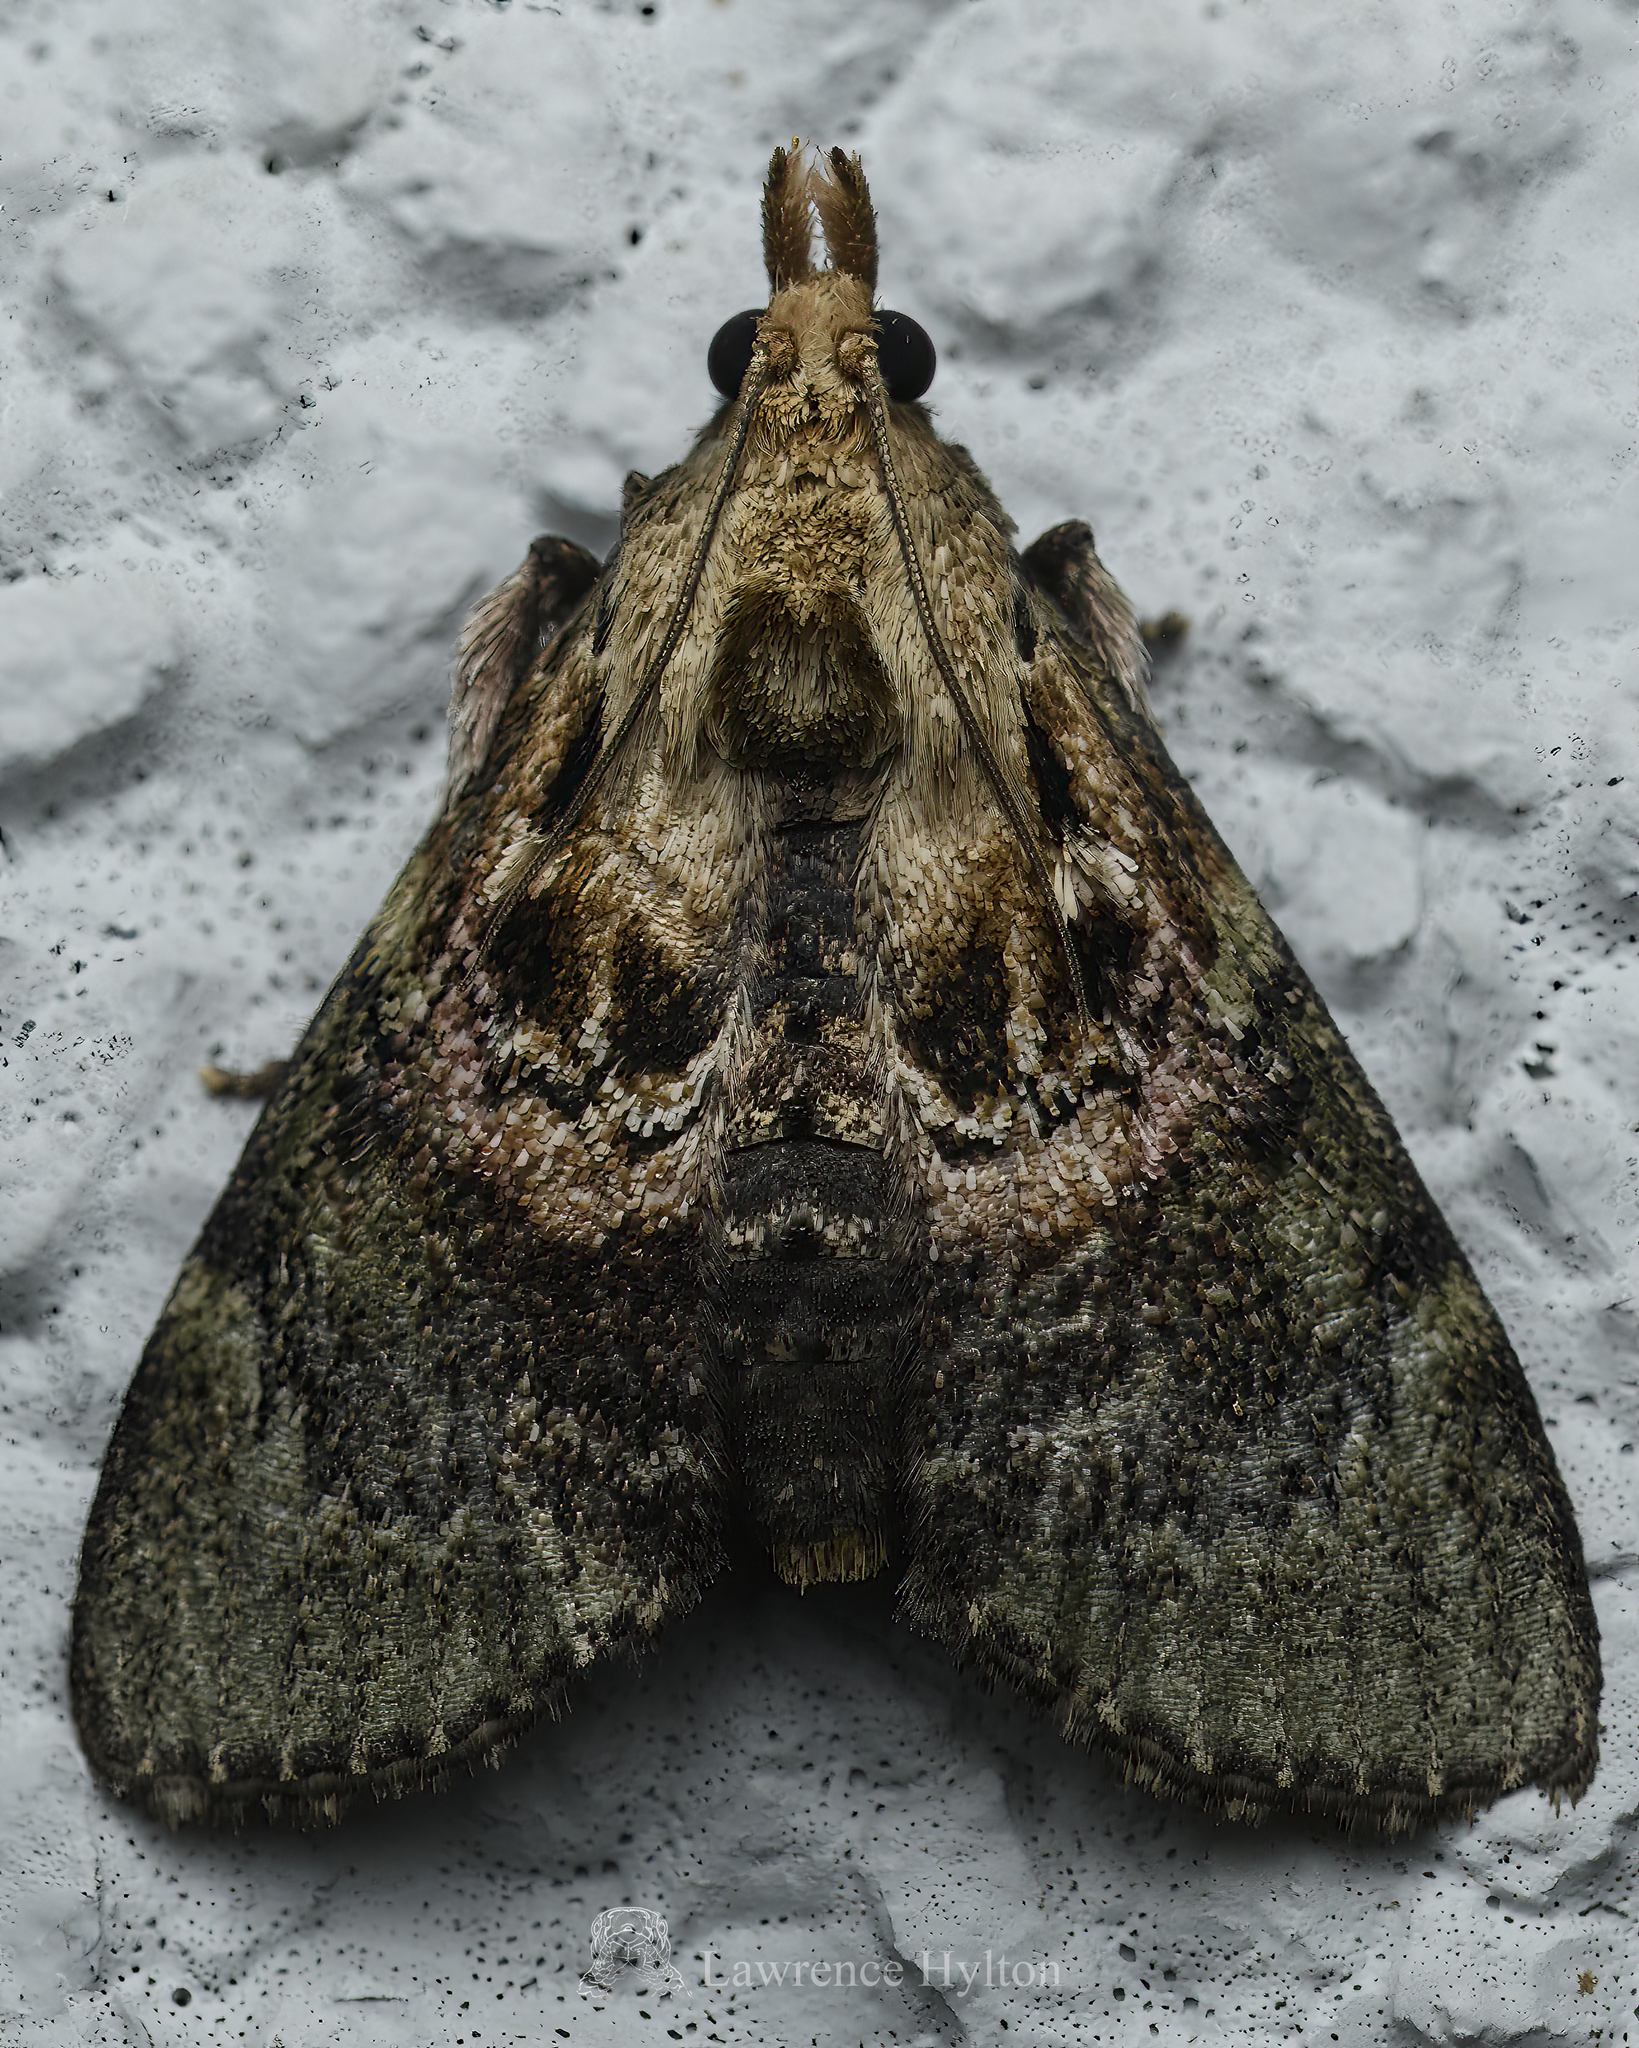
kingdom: Animalia
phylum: Arthropoda
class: Insecta
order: Lepidoptera
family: Pyralidae
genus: Locastra
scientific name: Locastra nigrilineata
